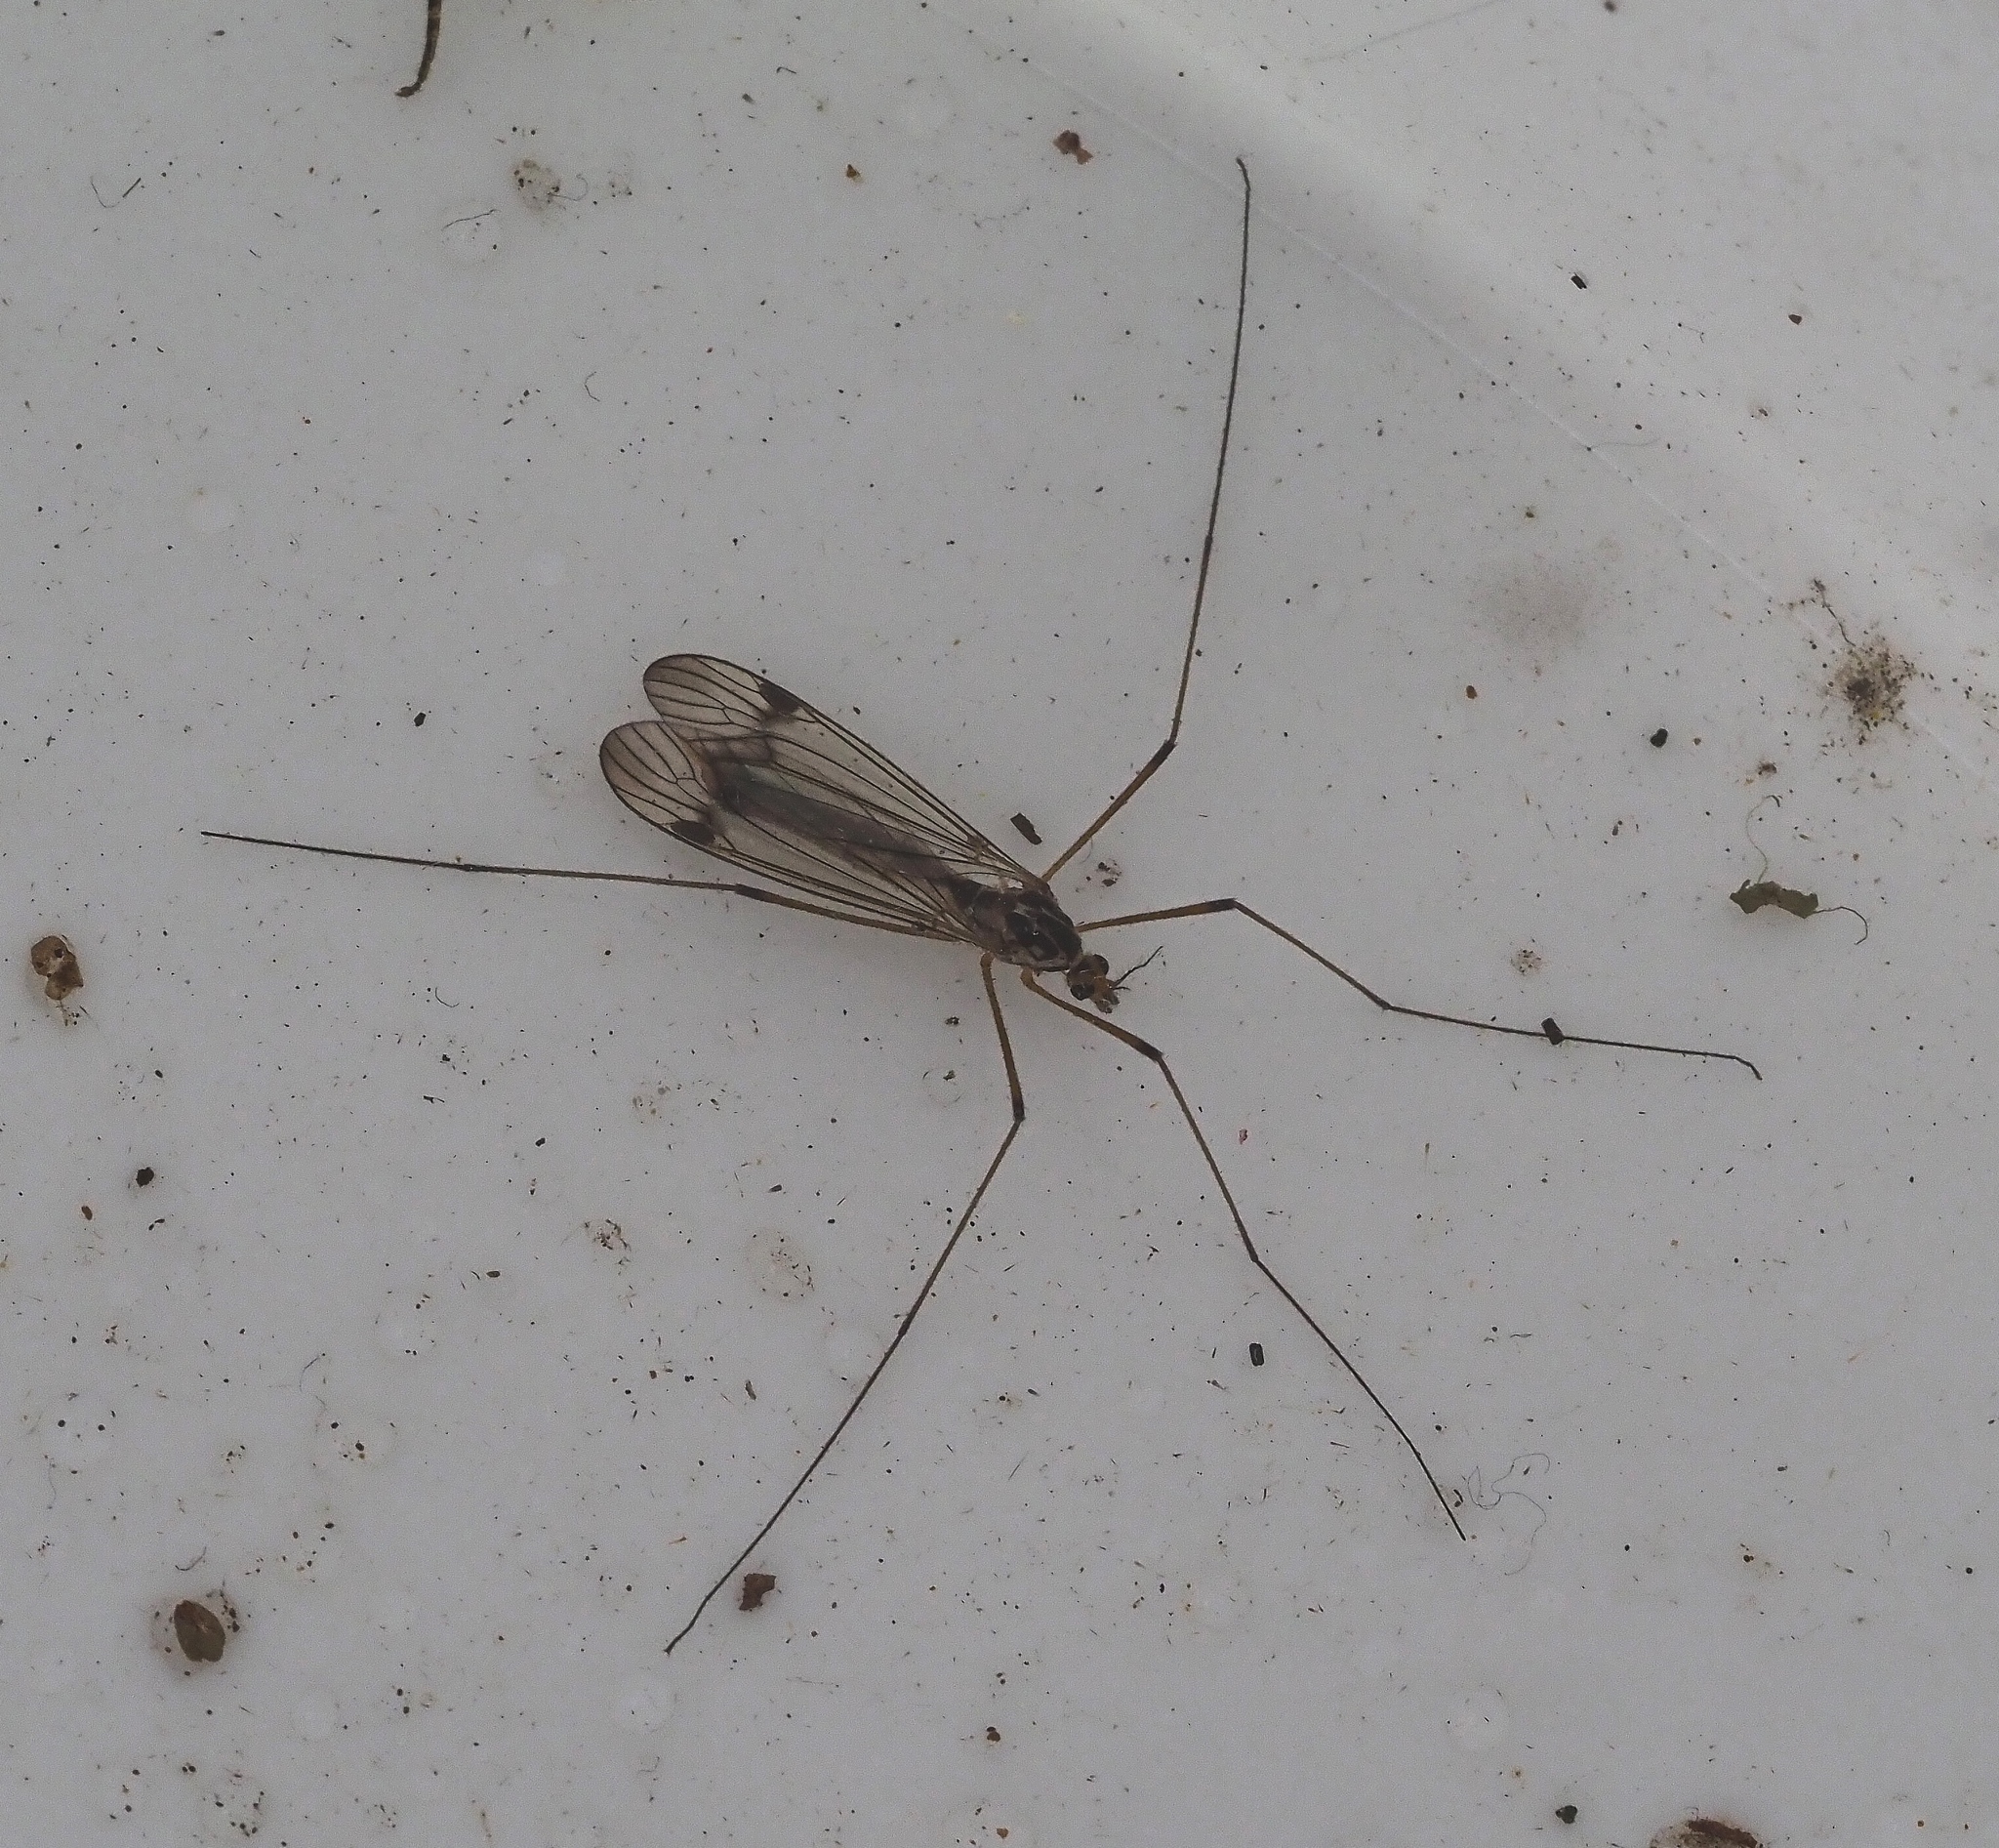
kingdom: Animalia
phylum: Arthropoda
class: Insecta
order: Diptera
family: Tipulidae
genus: Nephrotoma
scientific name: Nephrotoma quadrifaria
